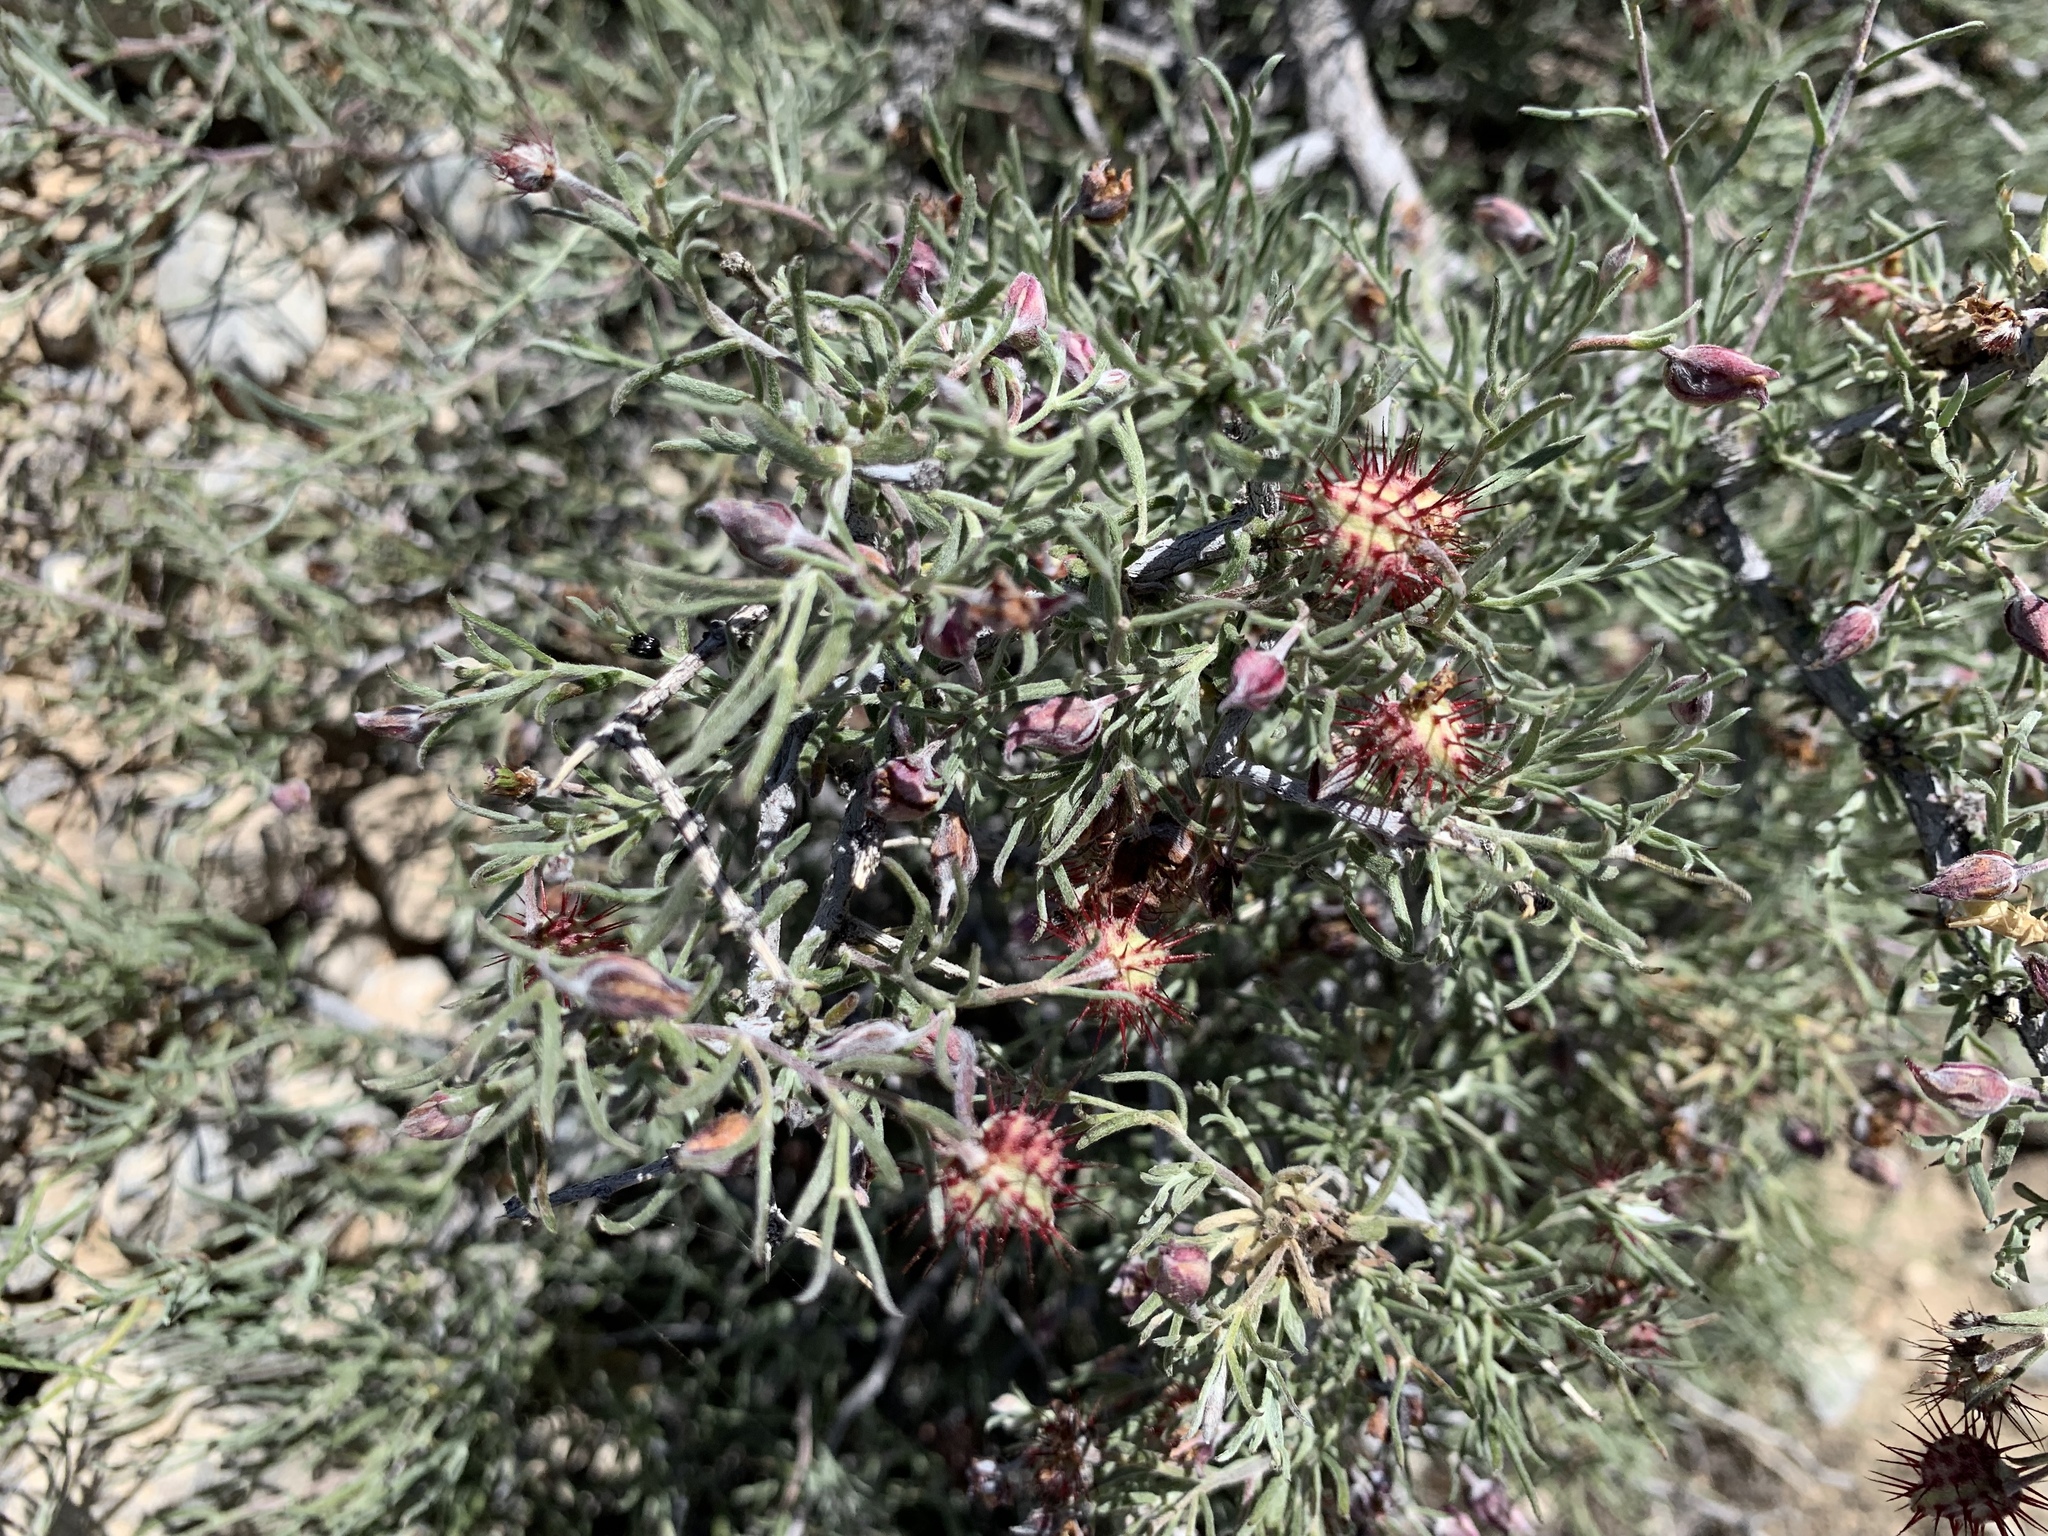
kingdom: Plantae
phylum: Tracheophyta
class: Magnoliopsida
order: Zygophyllales
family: Krameriaceae
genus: Krameria
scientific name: Krameria erecta
